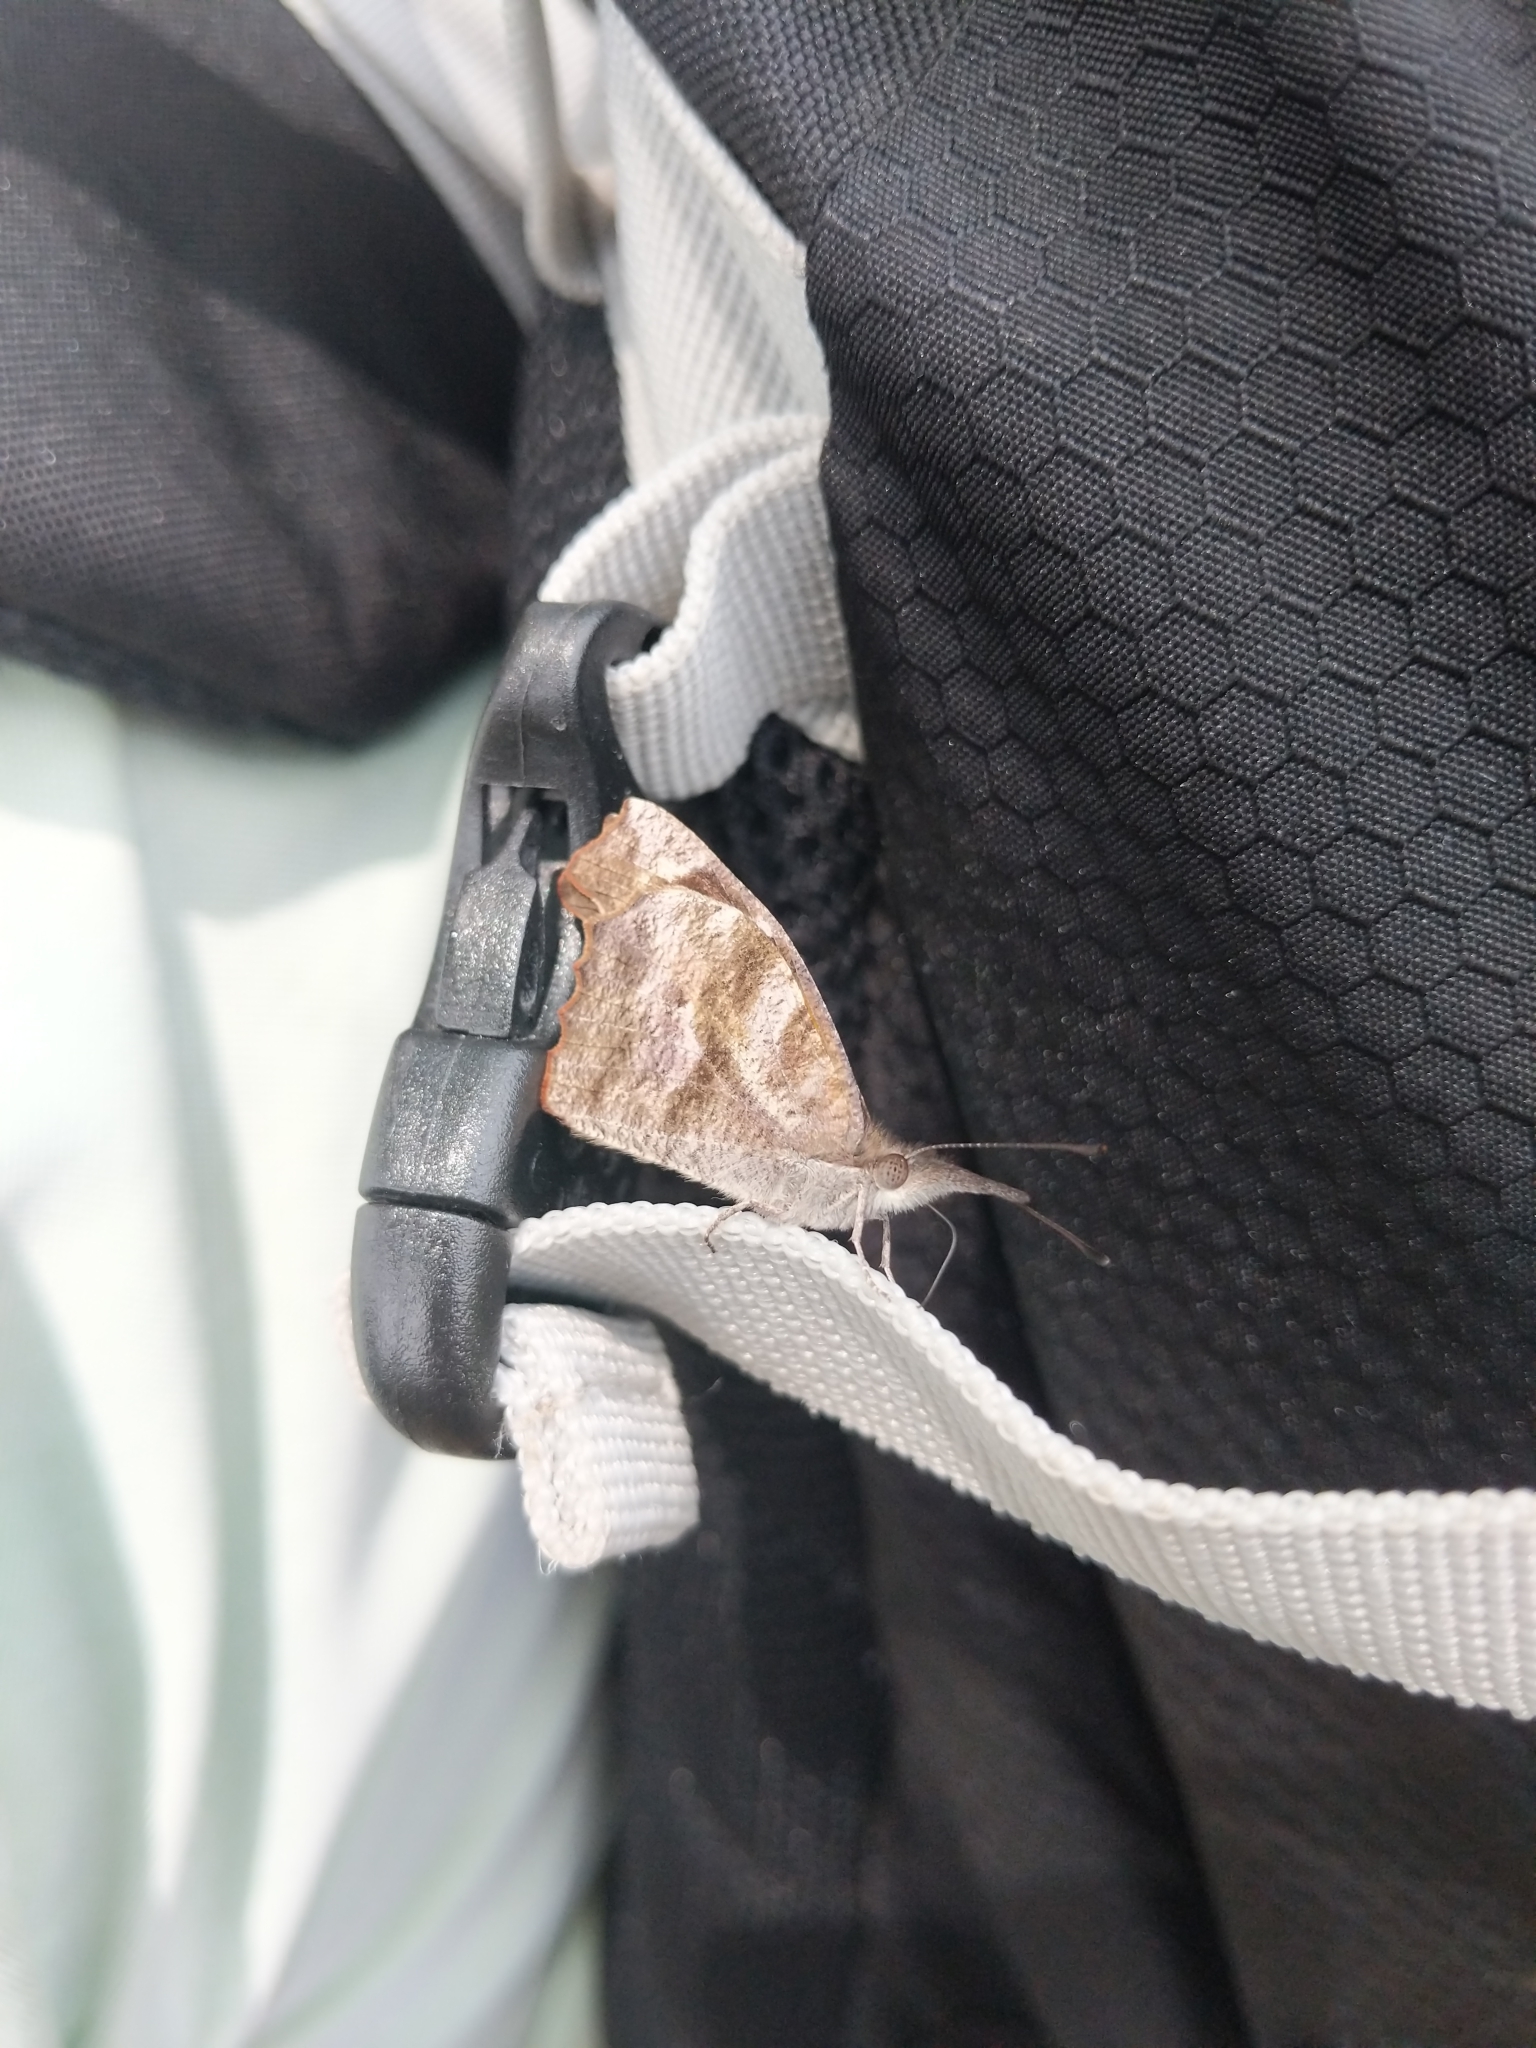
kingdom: Animalia
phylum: Arthropoda
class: Insecta
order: Lepidoptera
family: Nymphalidae
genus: Libytheana
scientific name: Libytheana carinenta
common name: American snout
